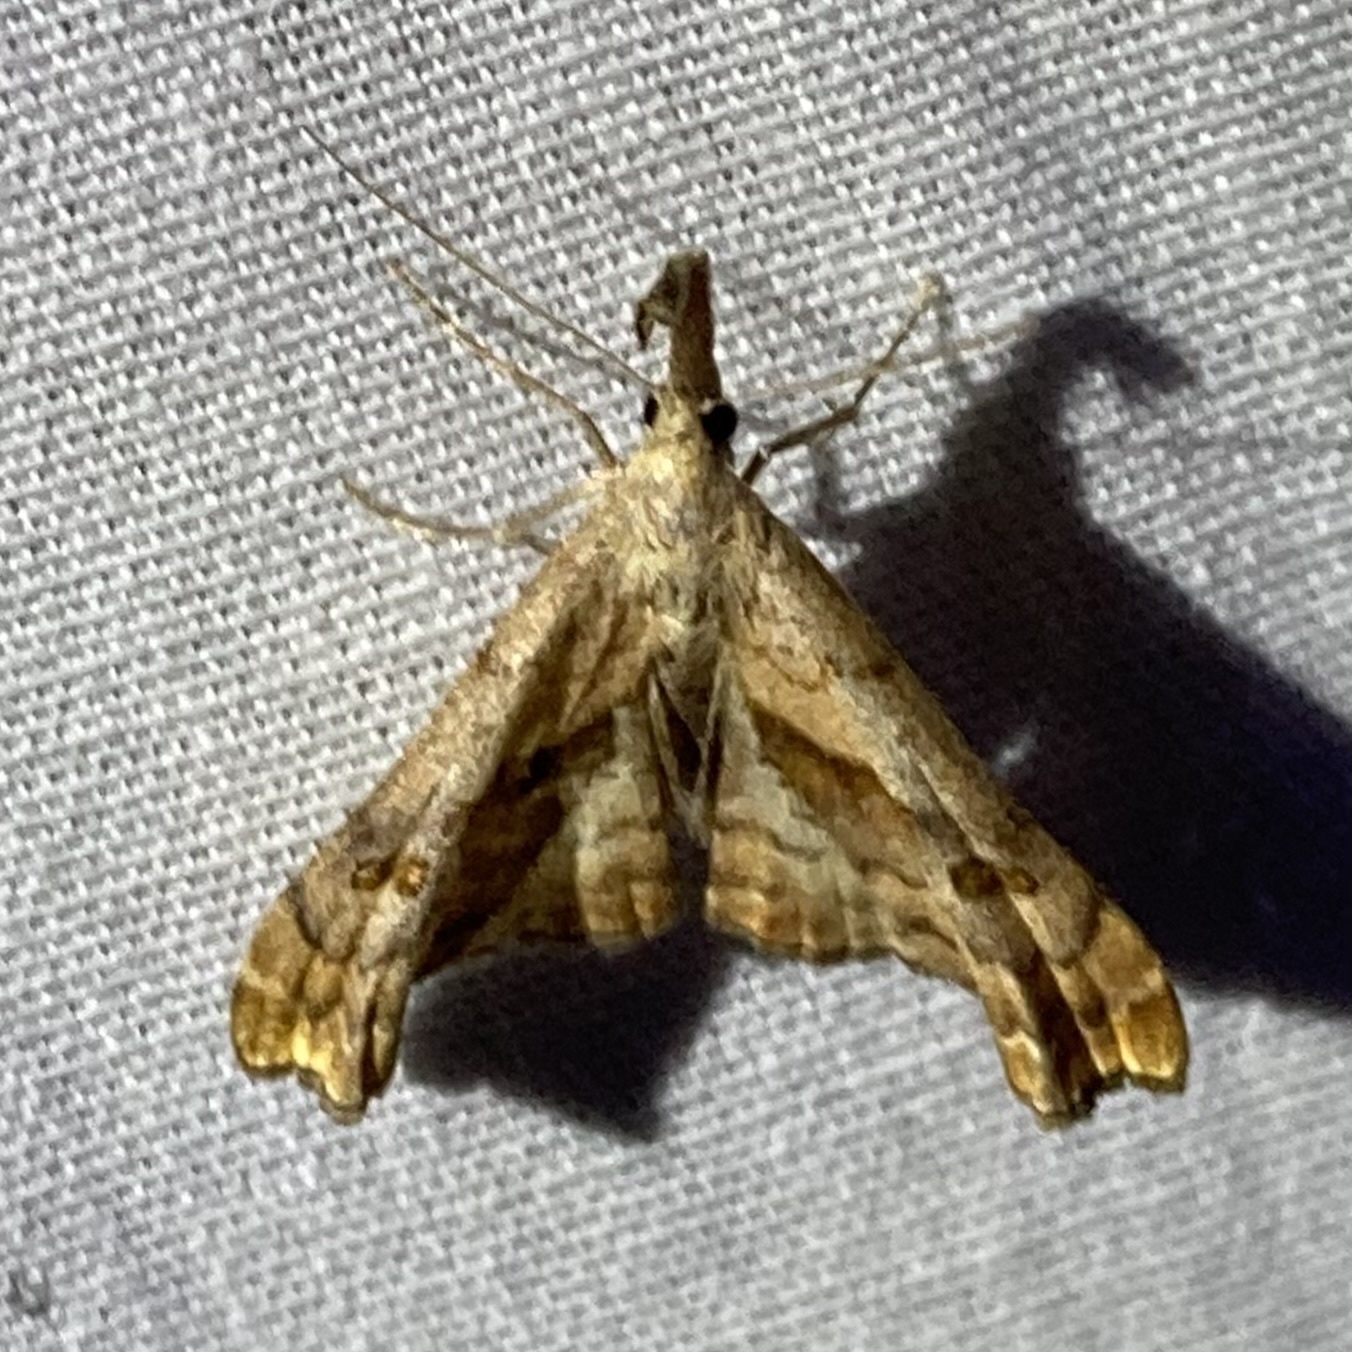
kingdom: Animalia
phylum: Arthropoda
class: Insecta
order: Lepidoptera
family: Erebidae
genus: Palthis
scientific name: Palthis angulalis
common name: Dark-spotted palthis moth
